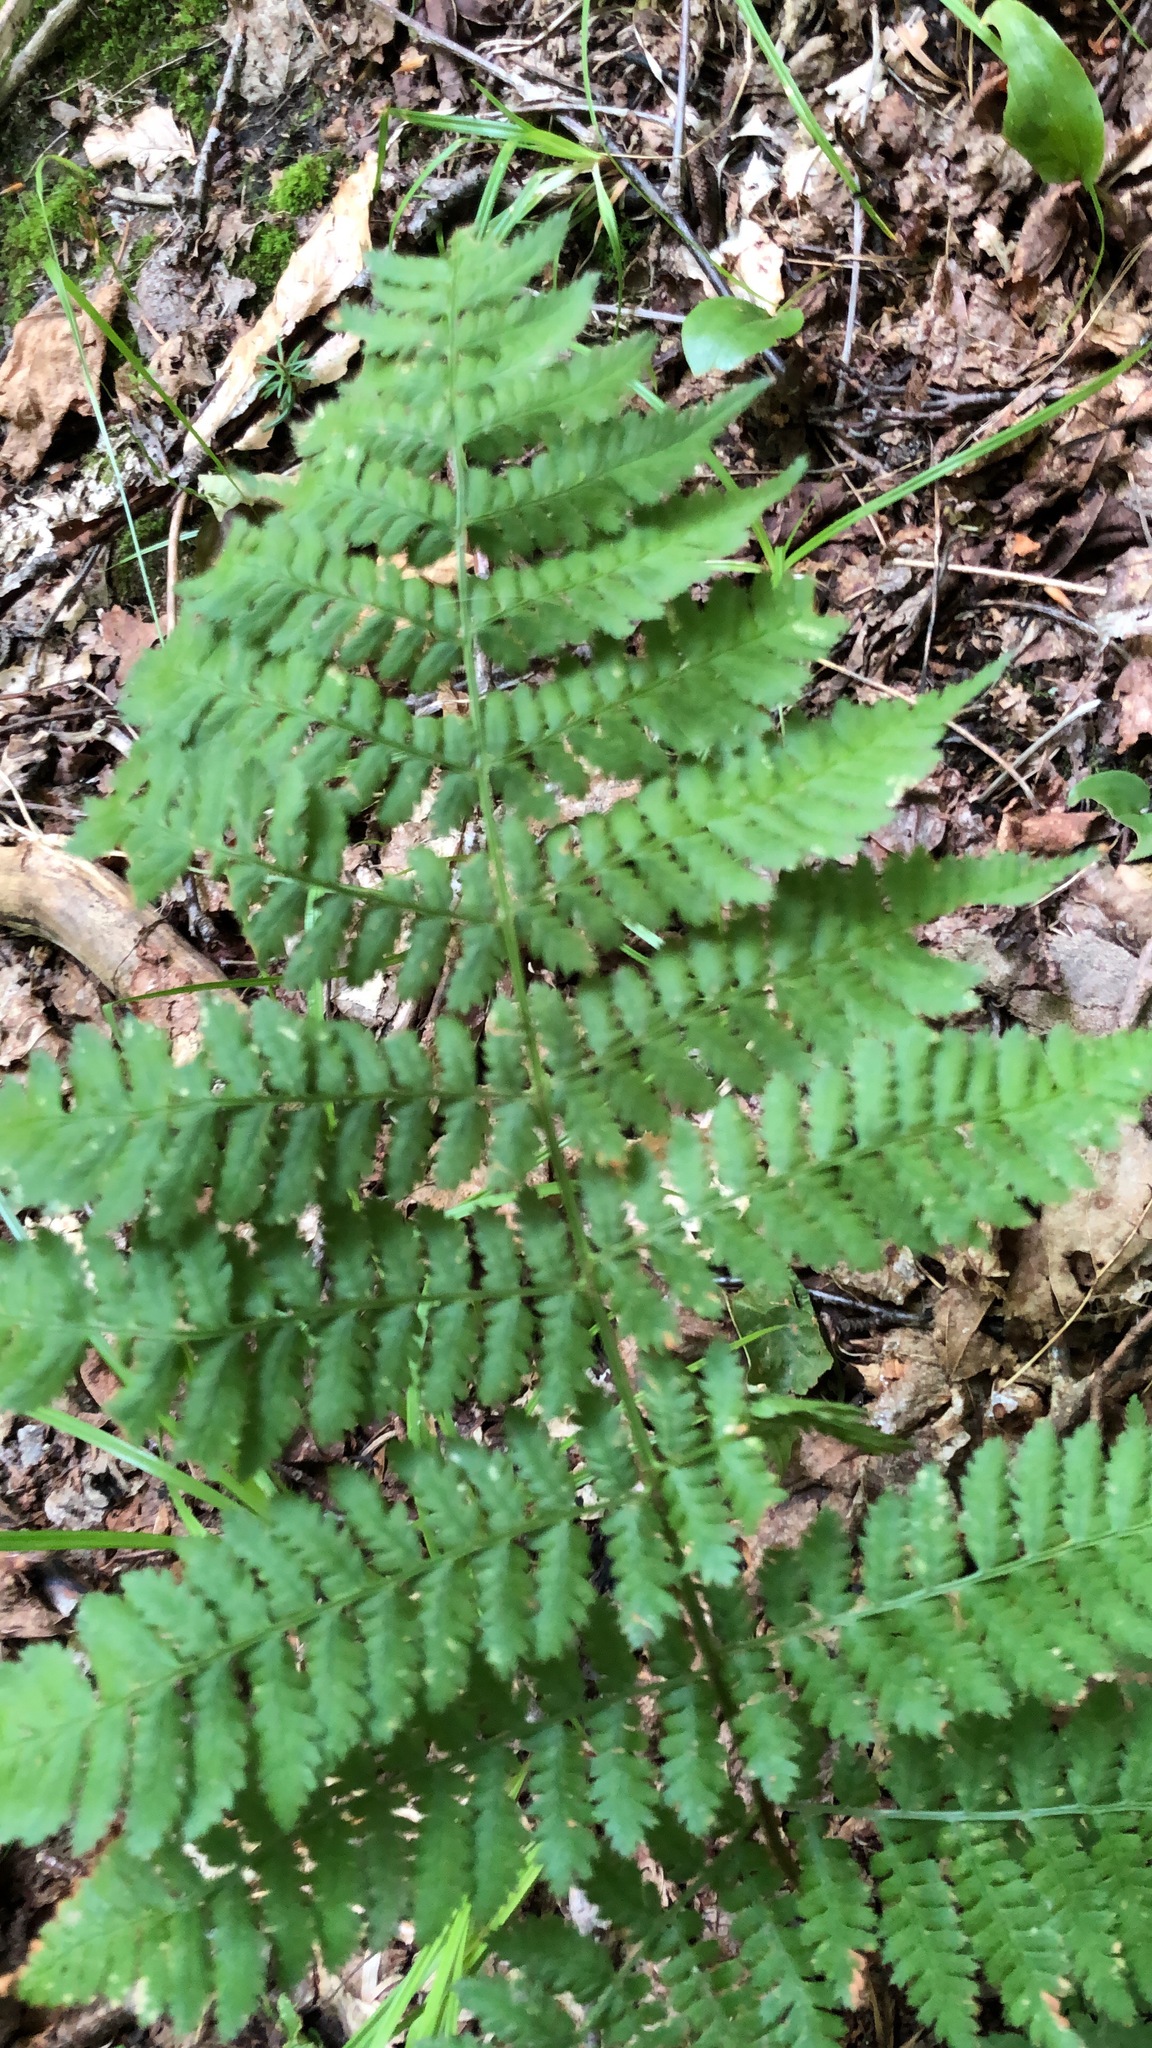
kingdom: Plantae
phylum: Tracheophyta
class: Polypodiopsida
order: Polypodiales
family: Dryopteridaceae
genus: Dryopteris
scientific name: Dryopteris intermedia
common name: Evergreen wood fern
